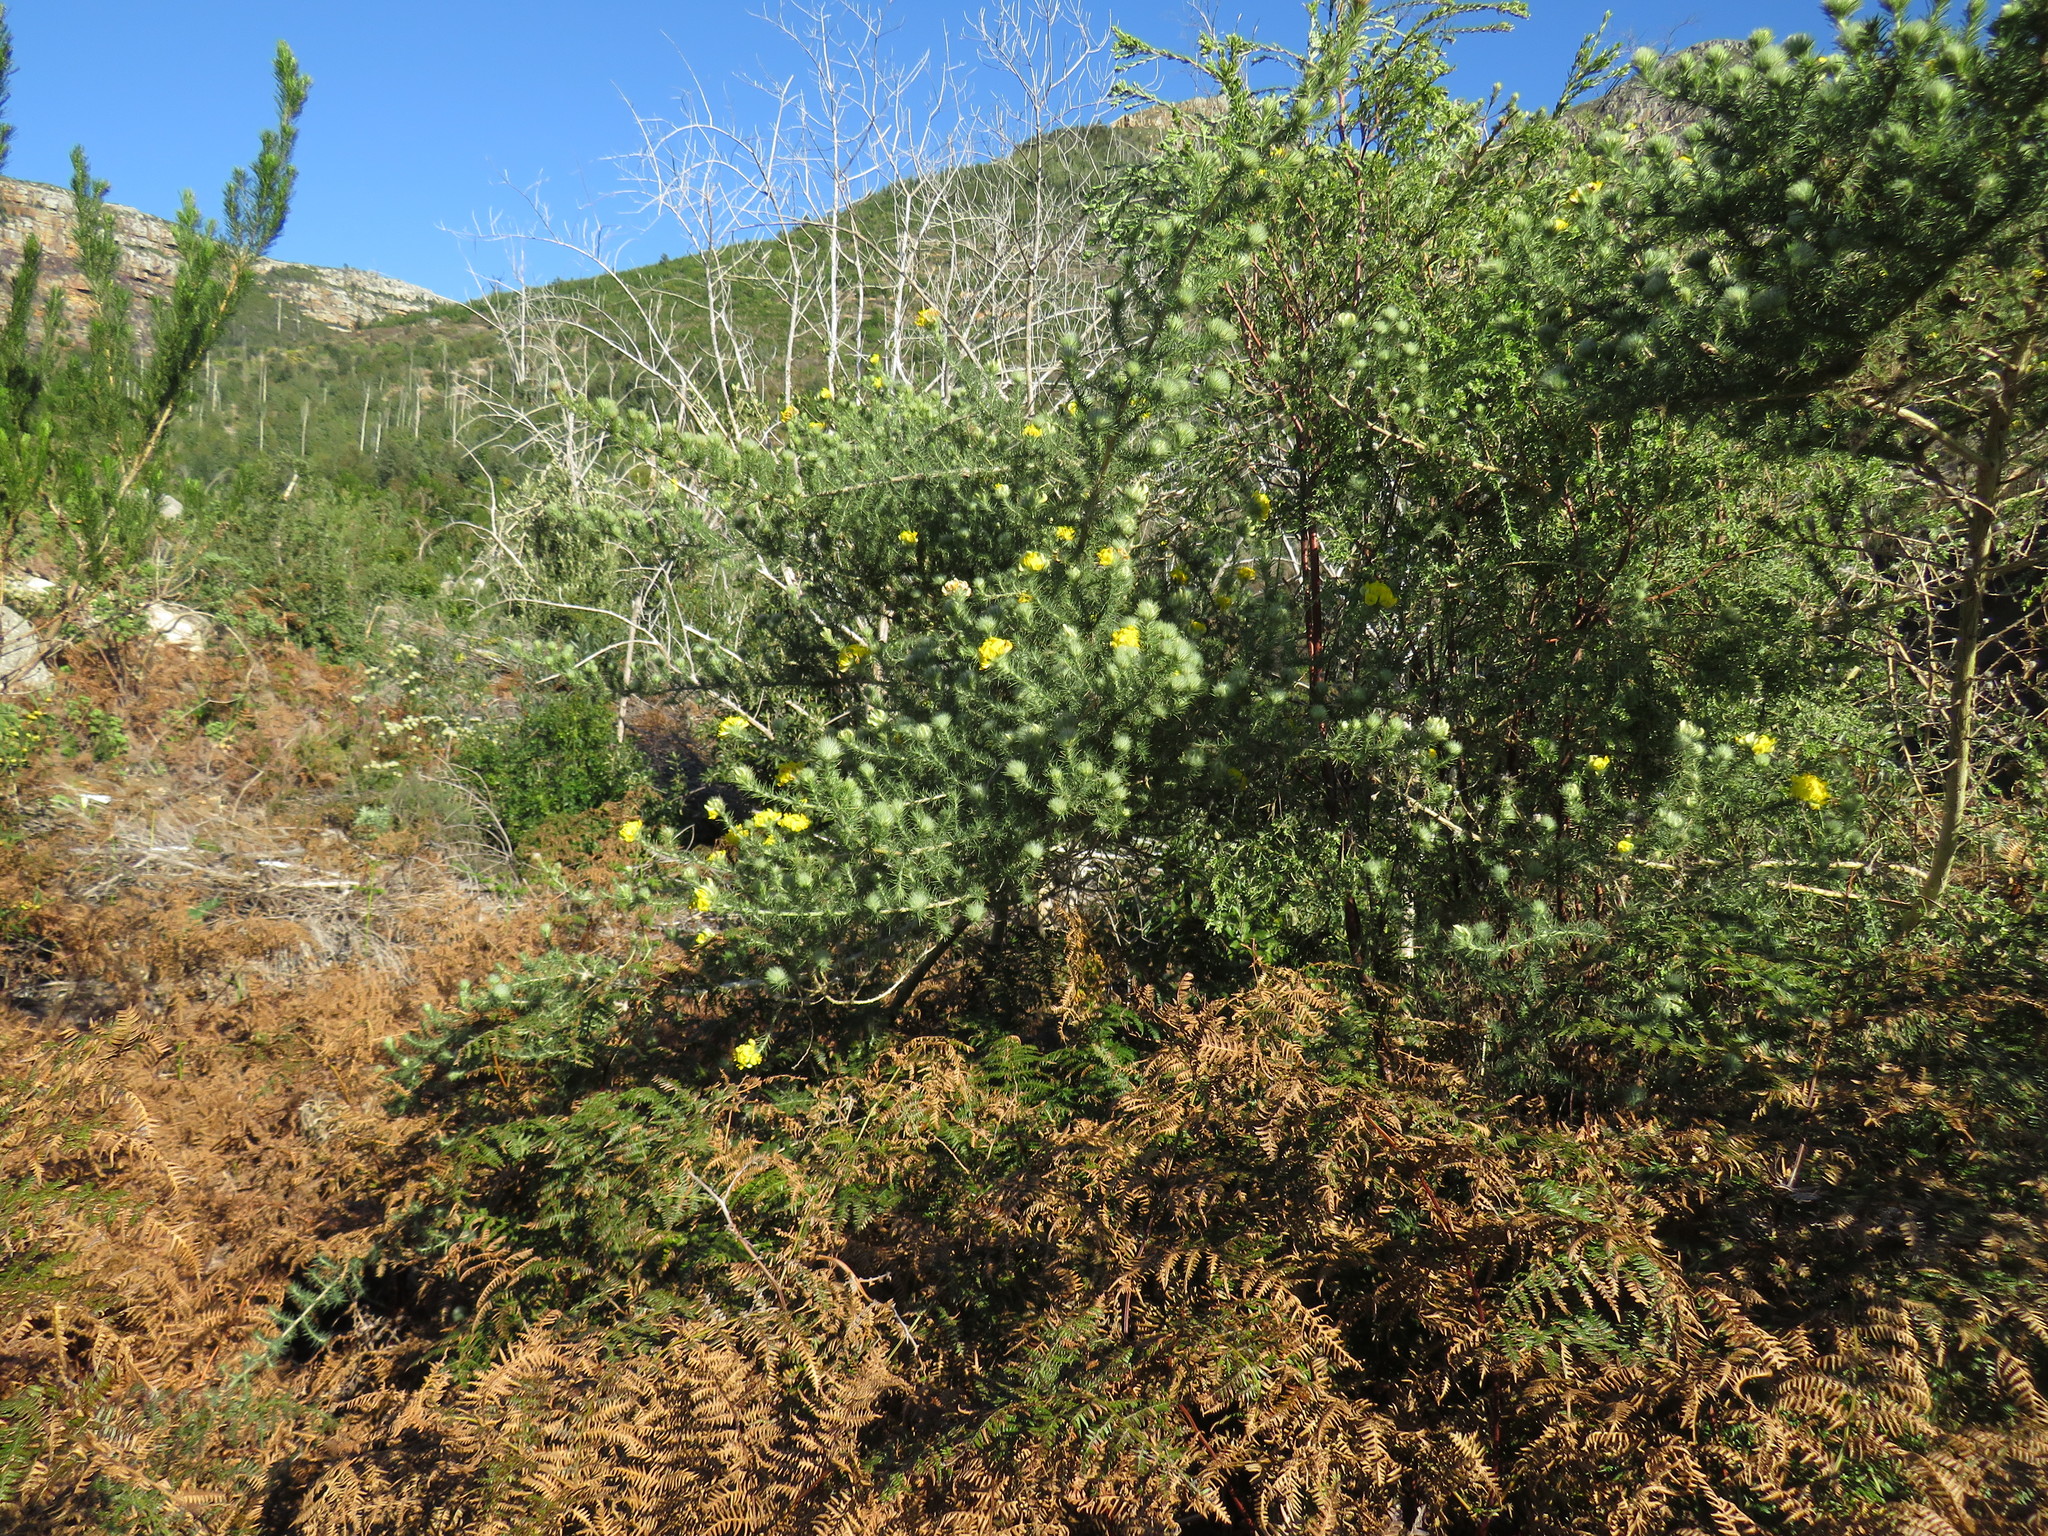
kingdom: Plantae
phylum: Tracheophyta
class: Magnoliopsida
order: Fabales
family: Fabaceae
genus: Aspalathus
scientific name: Aspalathus chenopoda
